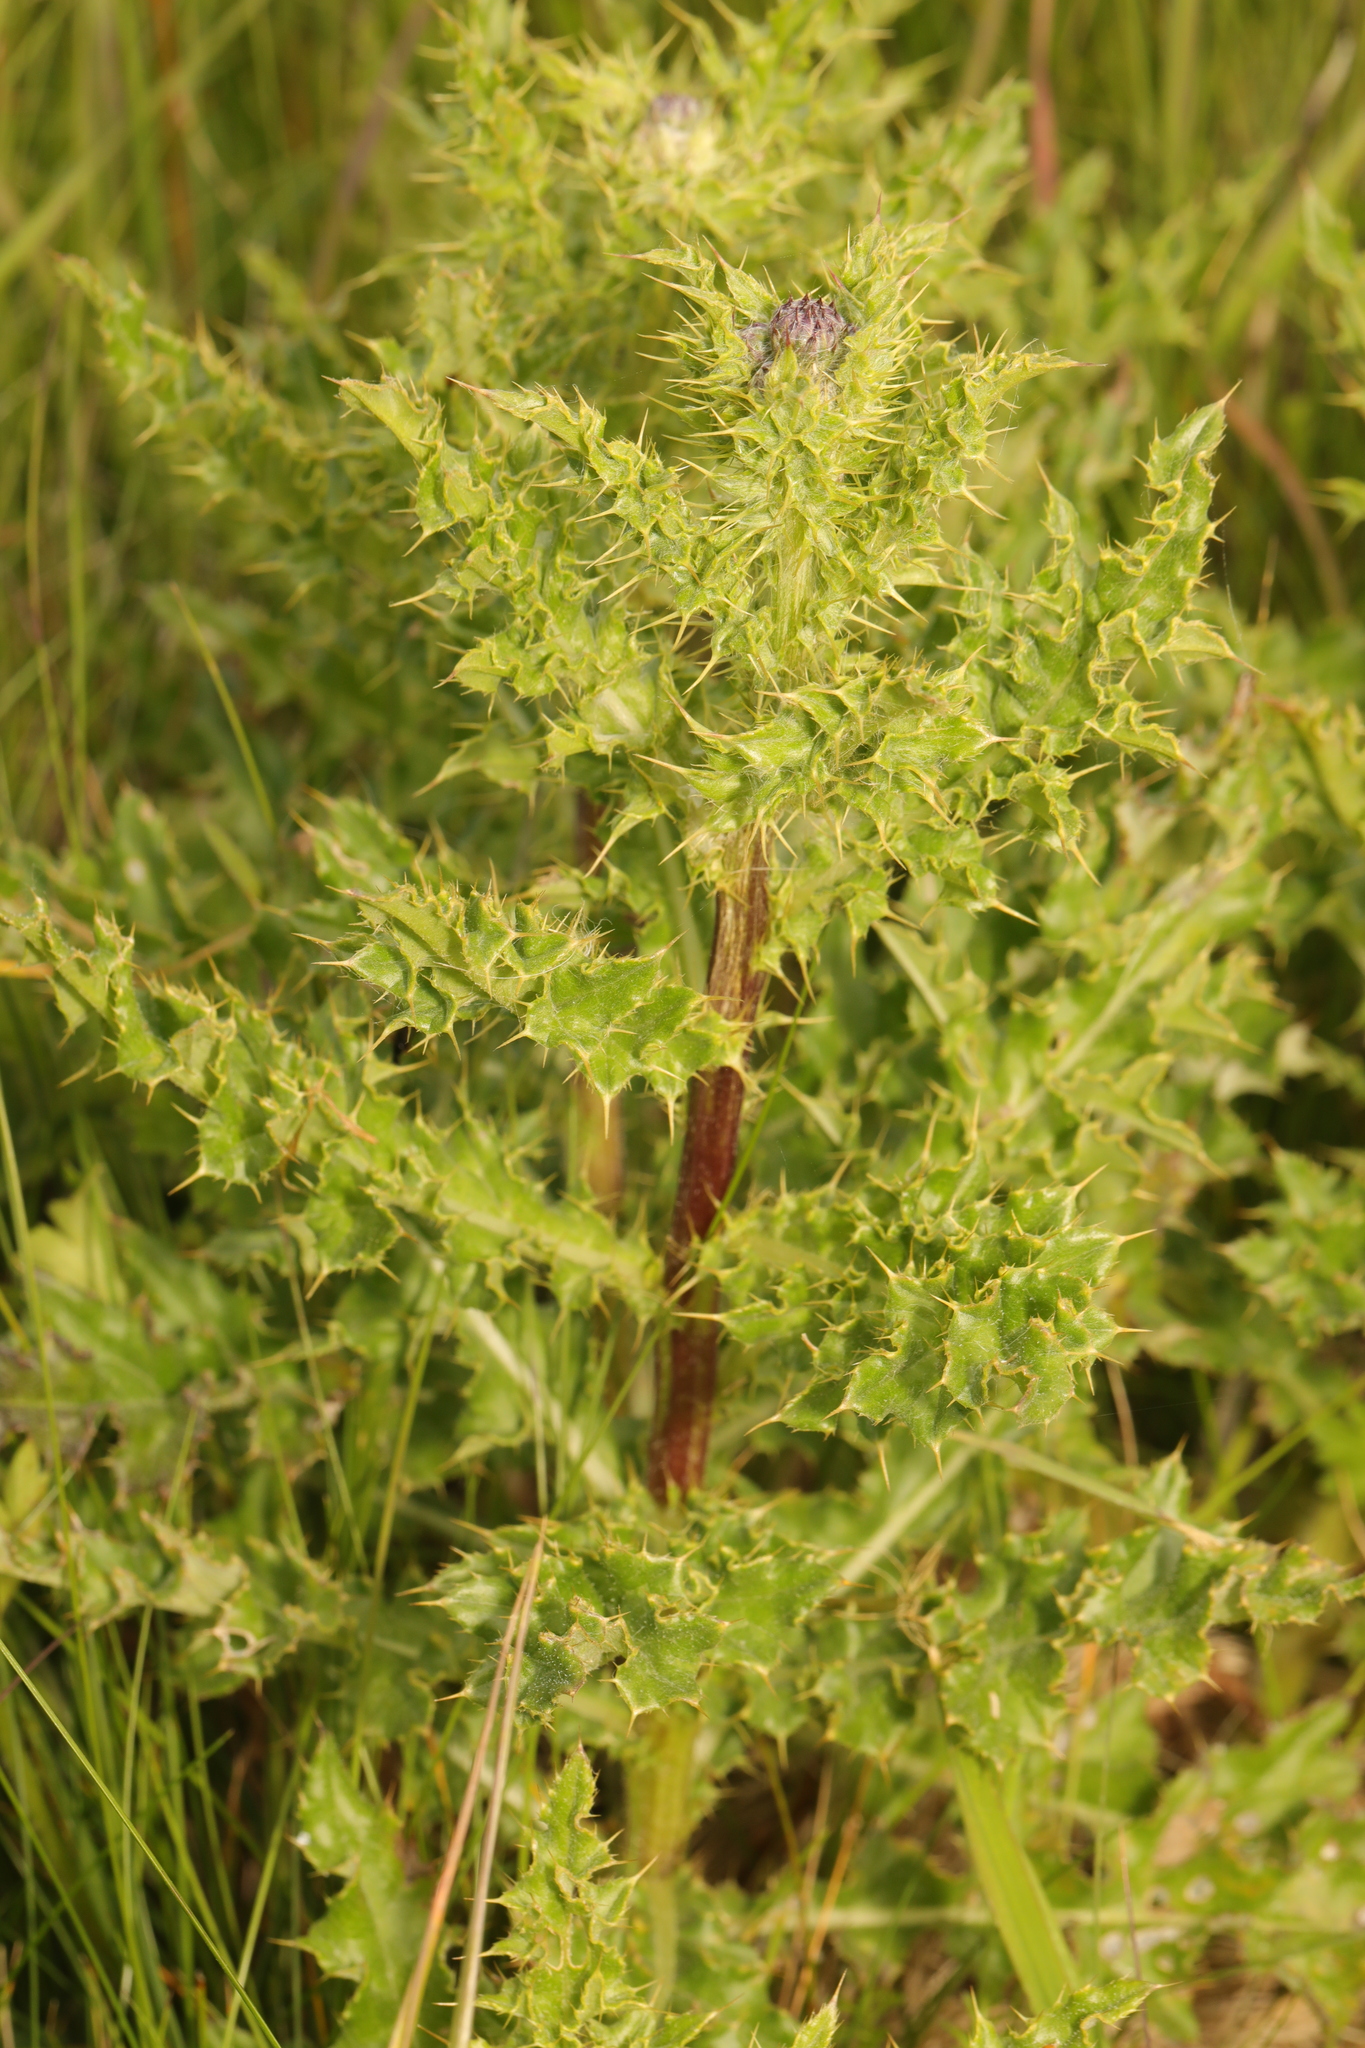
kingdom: Plantae
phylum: Tracheophyta
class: Magnoliopsida
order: Asterales
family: Asteraceae
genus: Cirsium
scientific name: Cirsium arvense
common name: Creeping thistle
